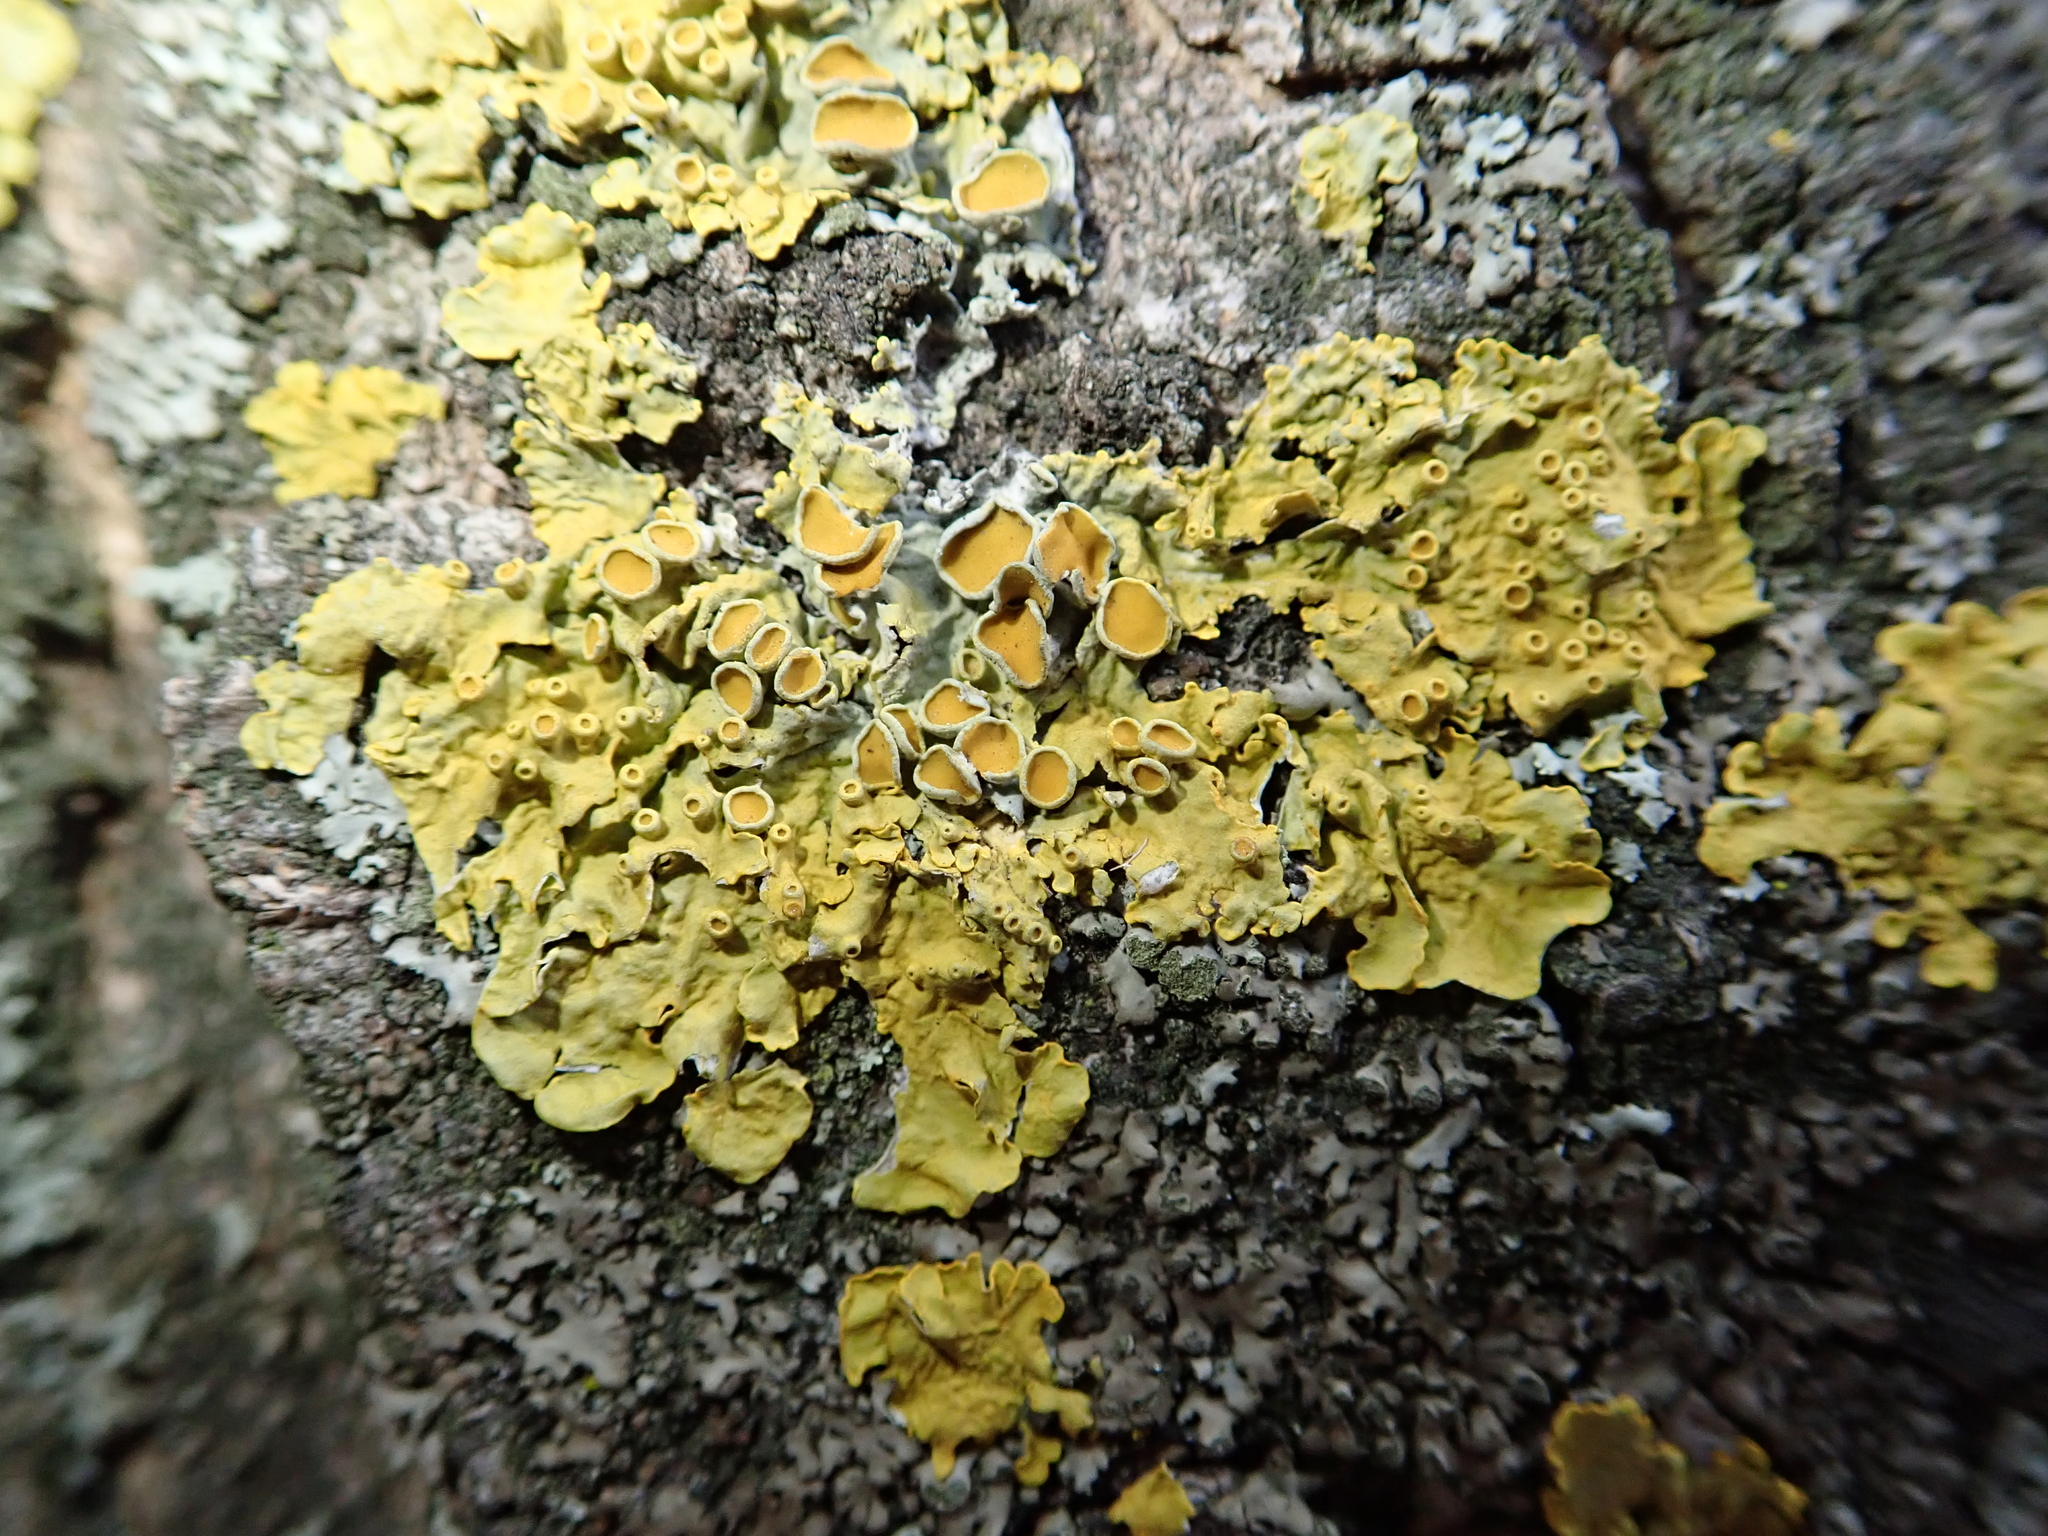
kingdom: Fungi
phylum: Ascomycota
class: Lecanoromycetes
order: Teloschistales
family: Teloschistaceae
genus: Xanthoria
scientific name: Xanthoria parietina
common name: Common orange lichen
